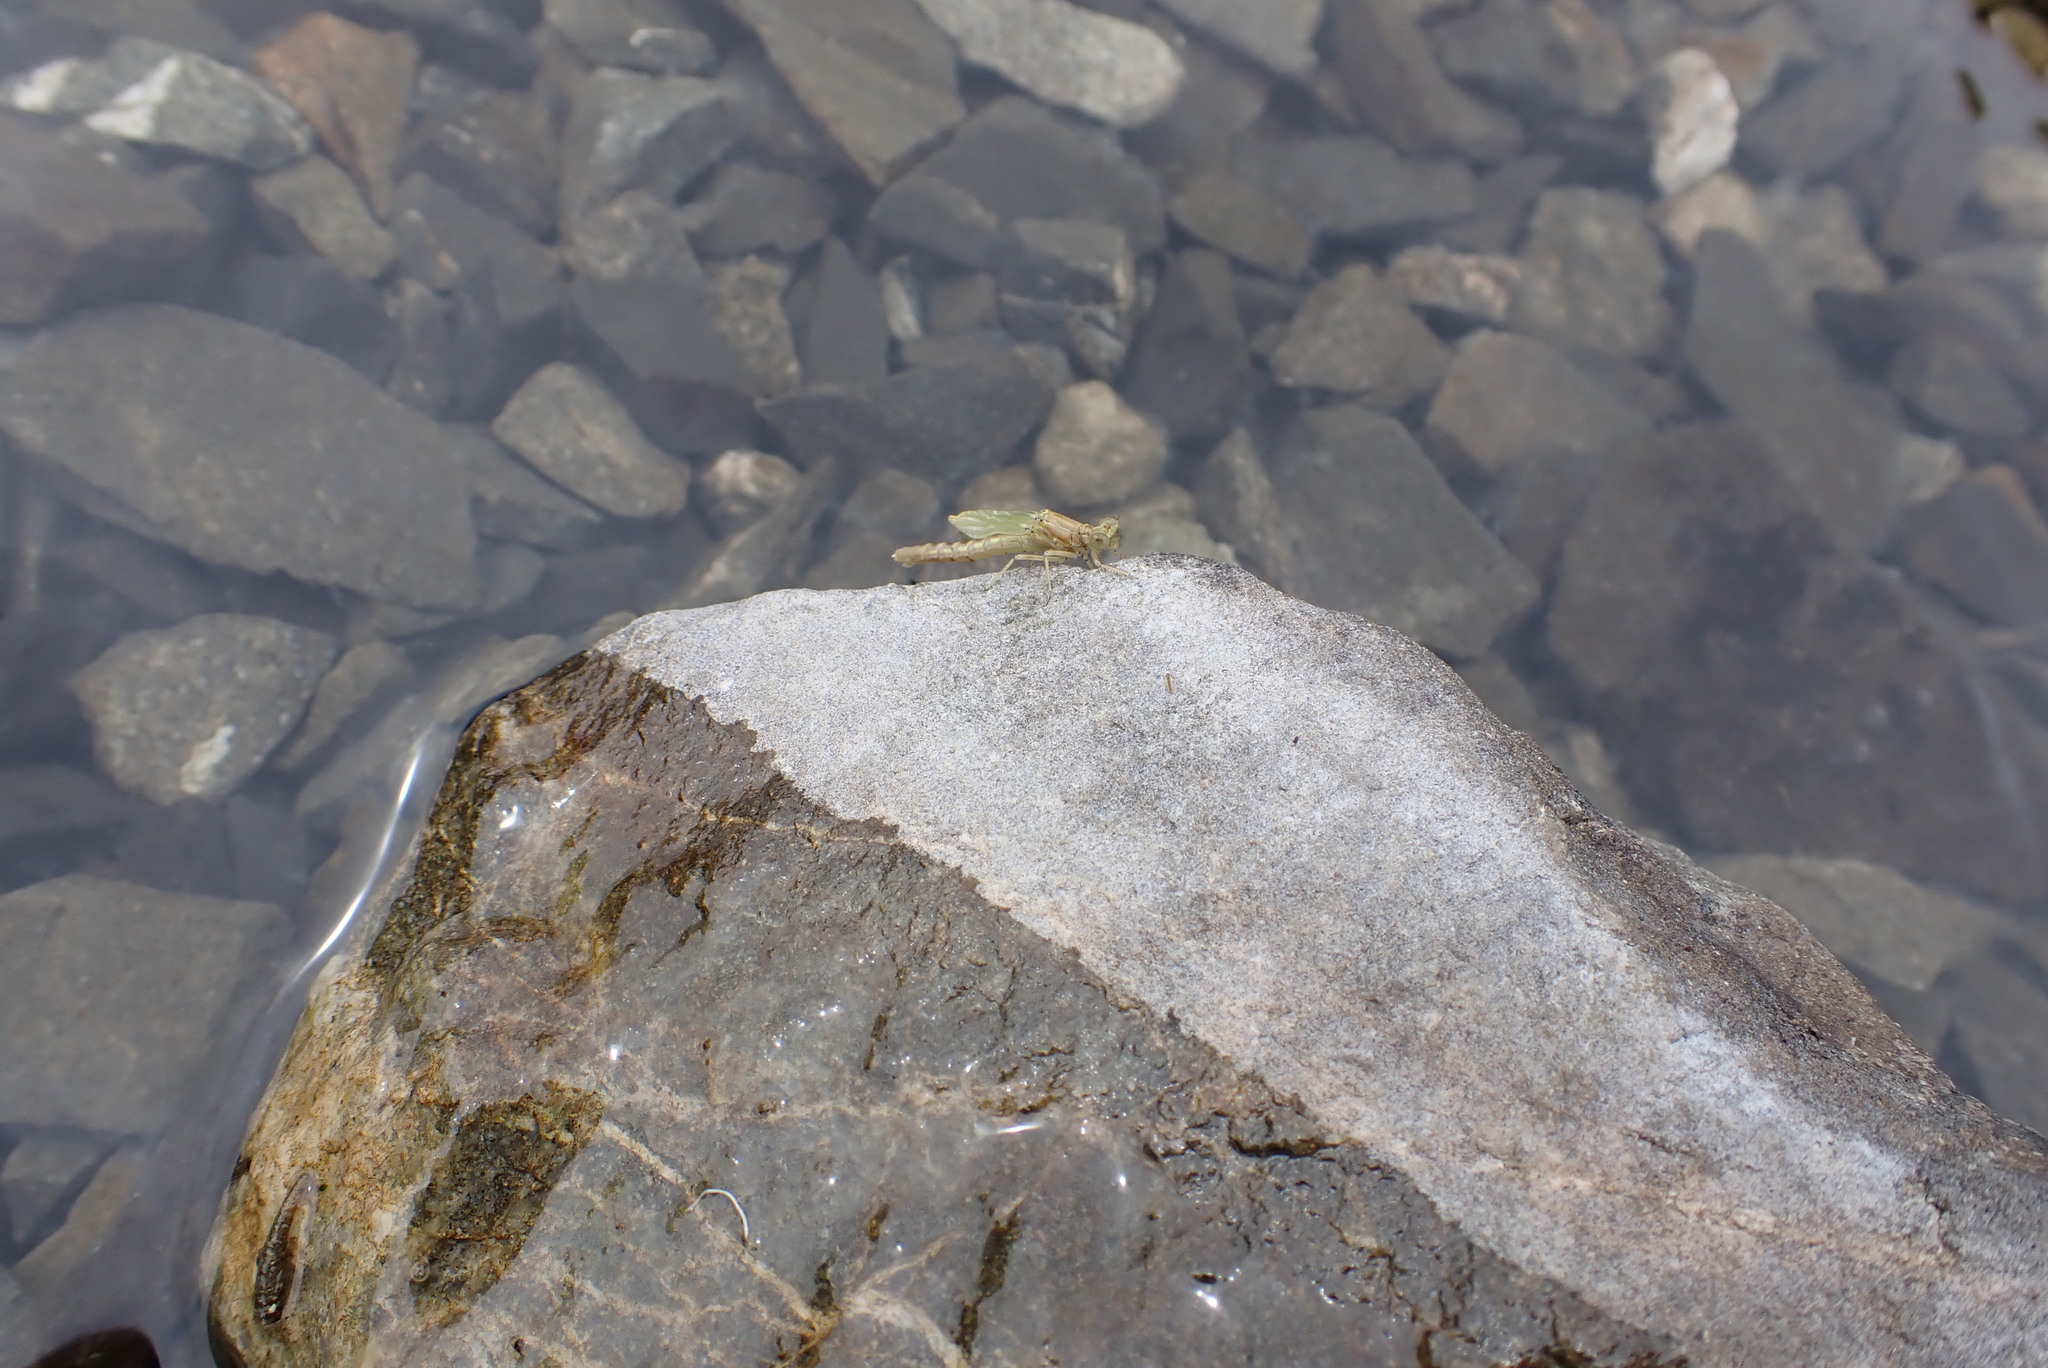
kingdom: Animalia
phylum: Arthropoda
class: Insecta
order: Odonata
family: Coenagrionidae
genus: Xanthocnemis
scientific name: Xanthocnemis zealandica
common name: Common redcoat damselfly
